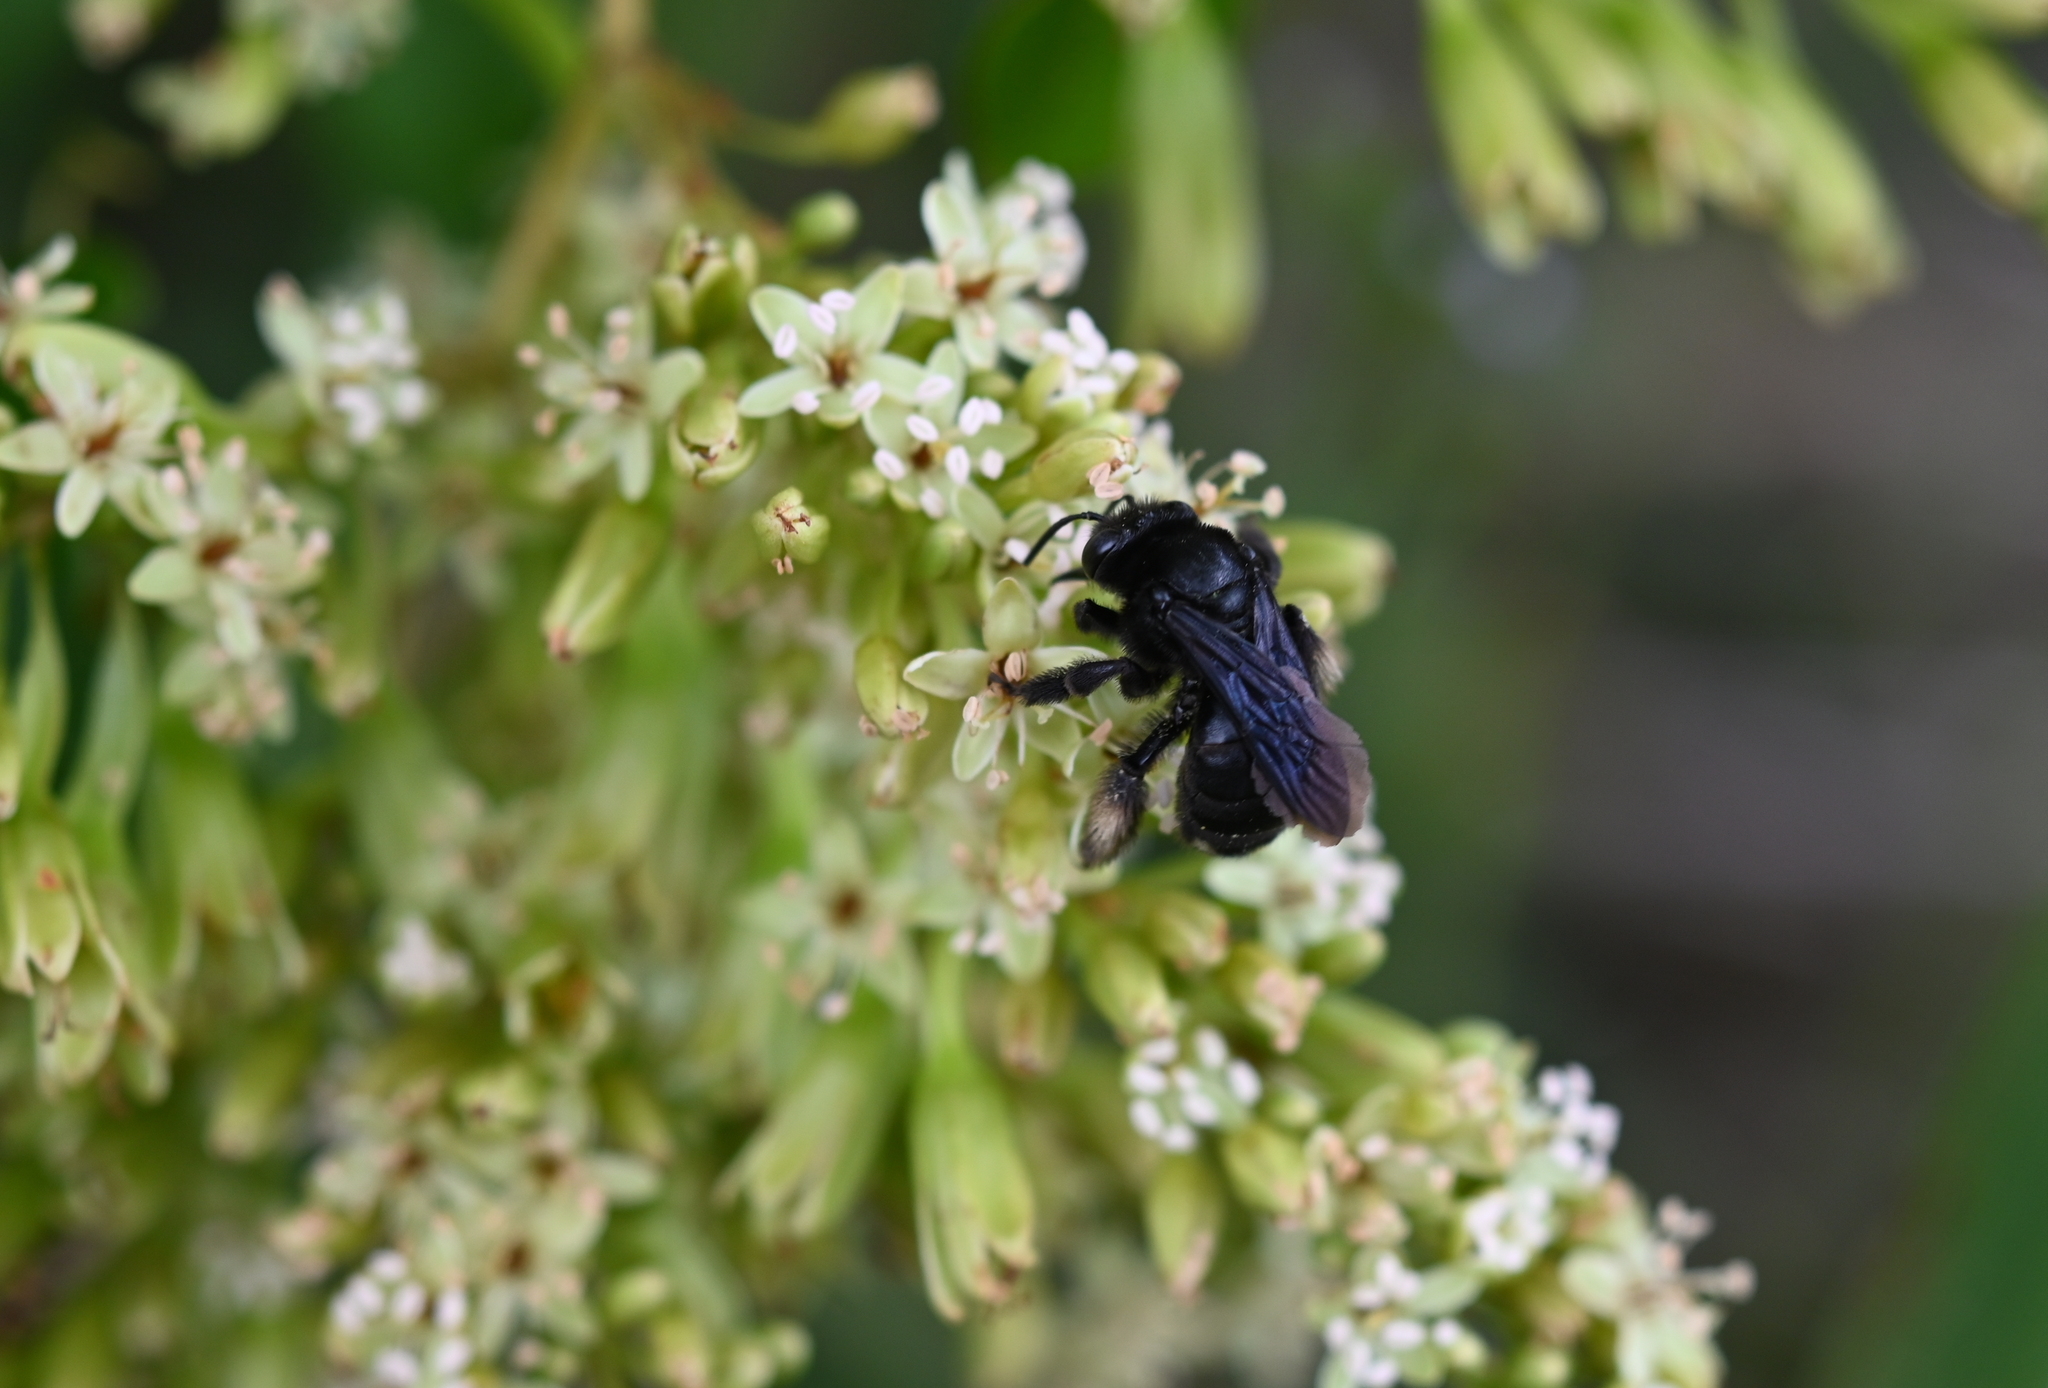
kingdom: Animalia
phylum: Arthropoda
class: Insecta
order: Hymenoptera
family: Apidae
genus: Melissodes
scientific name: Melissodes bimaculatus
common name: Two-spotted long-horned bee
